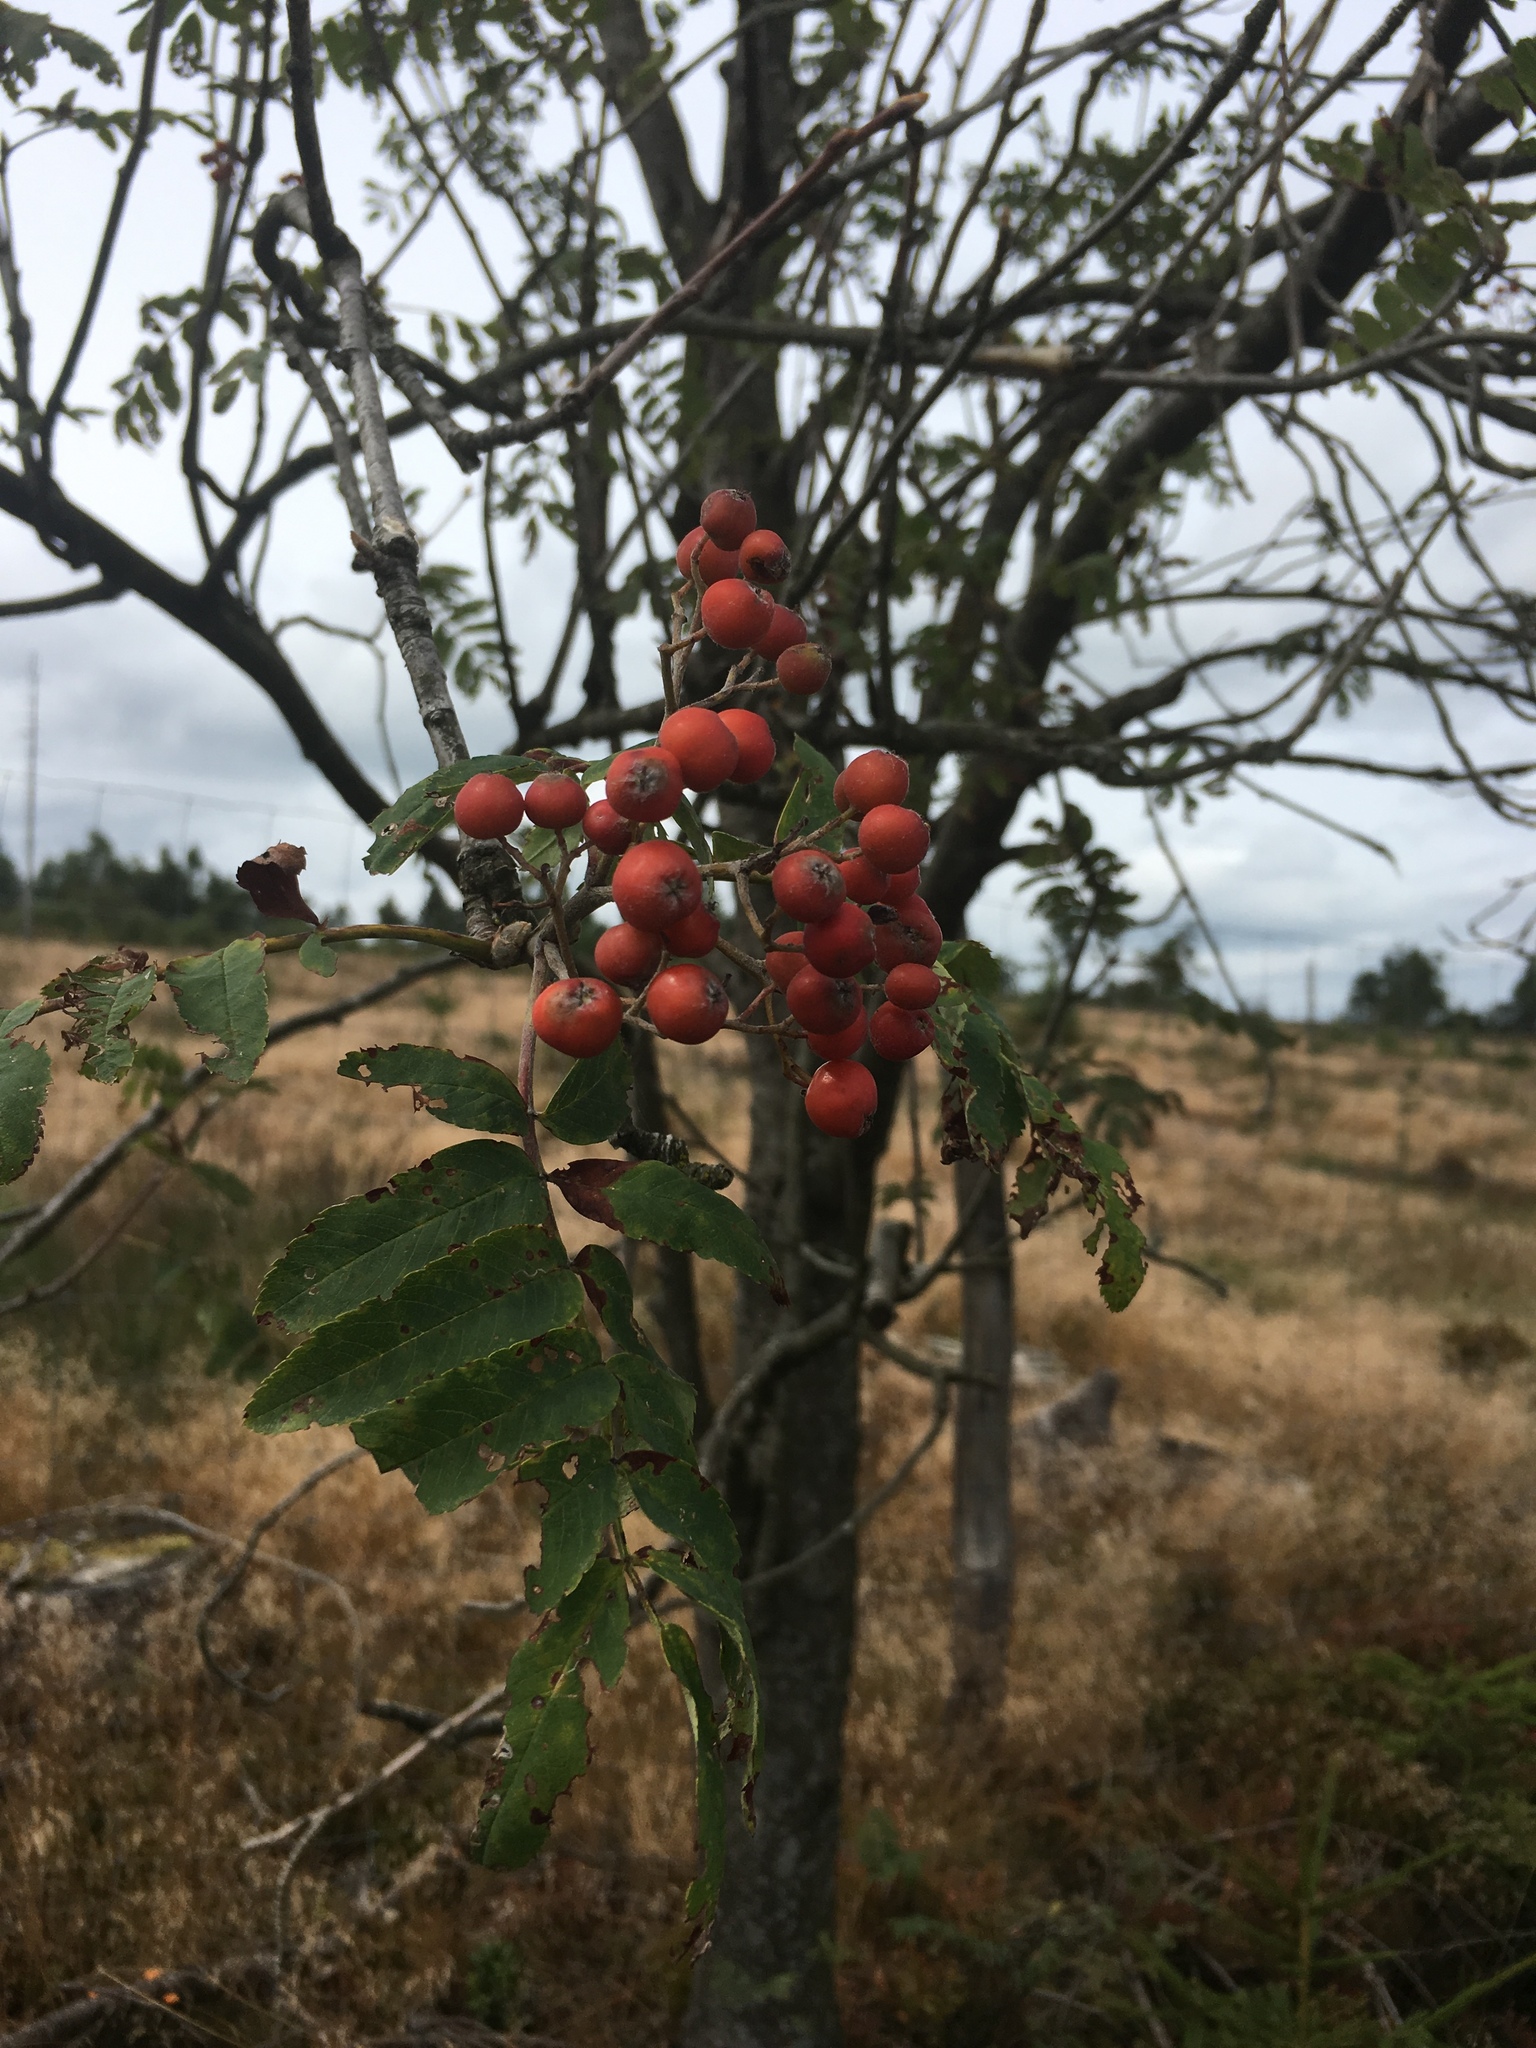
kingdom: Plantae
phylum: Tracheophyta
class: Magnoliopsida
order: Rosales
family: Rosaceae
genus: Sorbus
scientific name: Sorbus aucuparia
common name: Rowan
